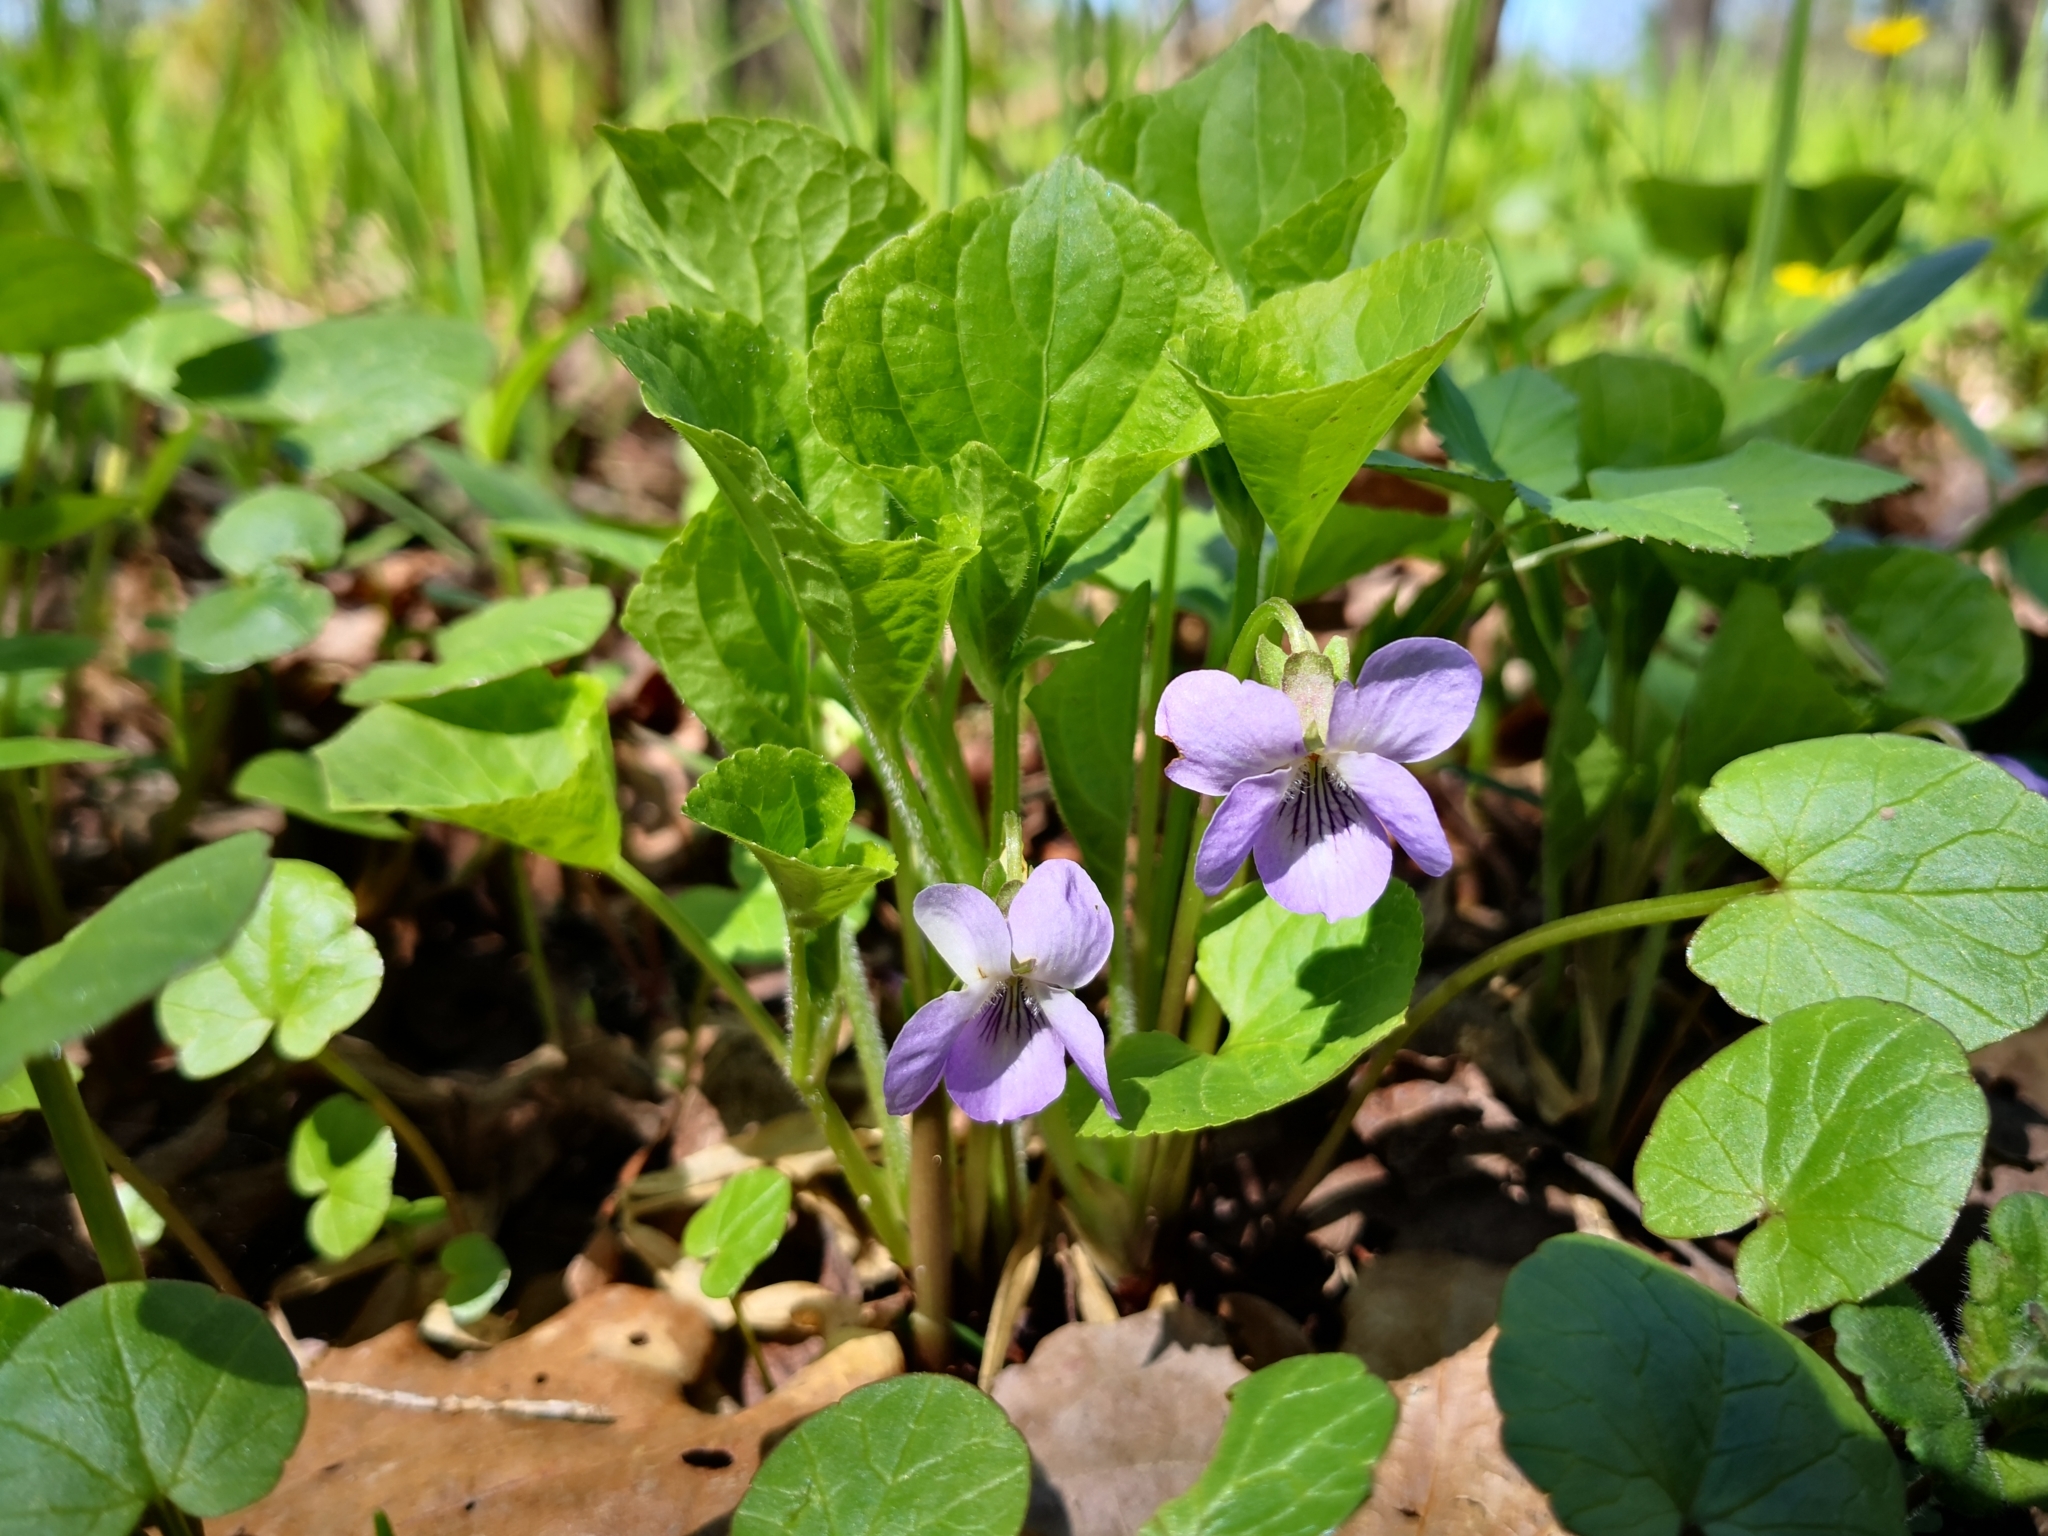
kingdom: Plantae
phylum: Tracheophyta
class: Magnoliopsida
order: Malpighiales
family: Violaceae
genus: Viola
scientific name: Viola mirabilis
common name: Wonder violet
